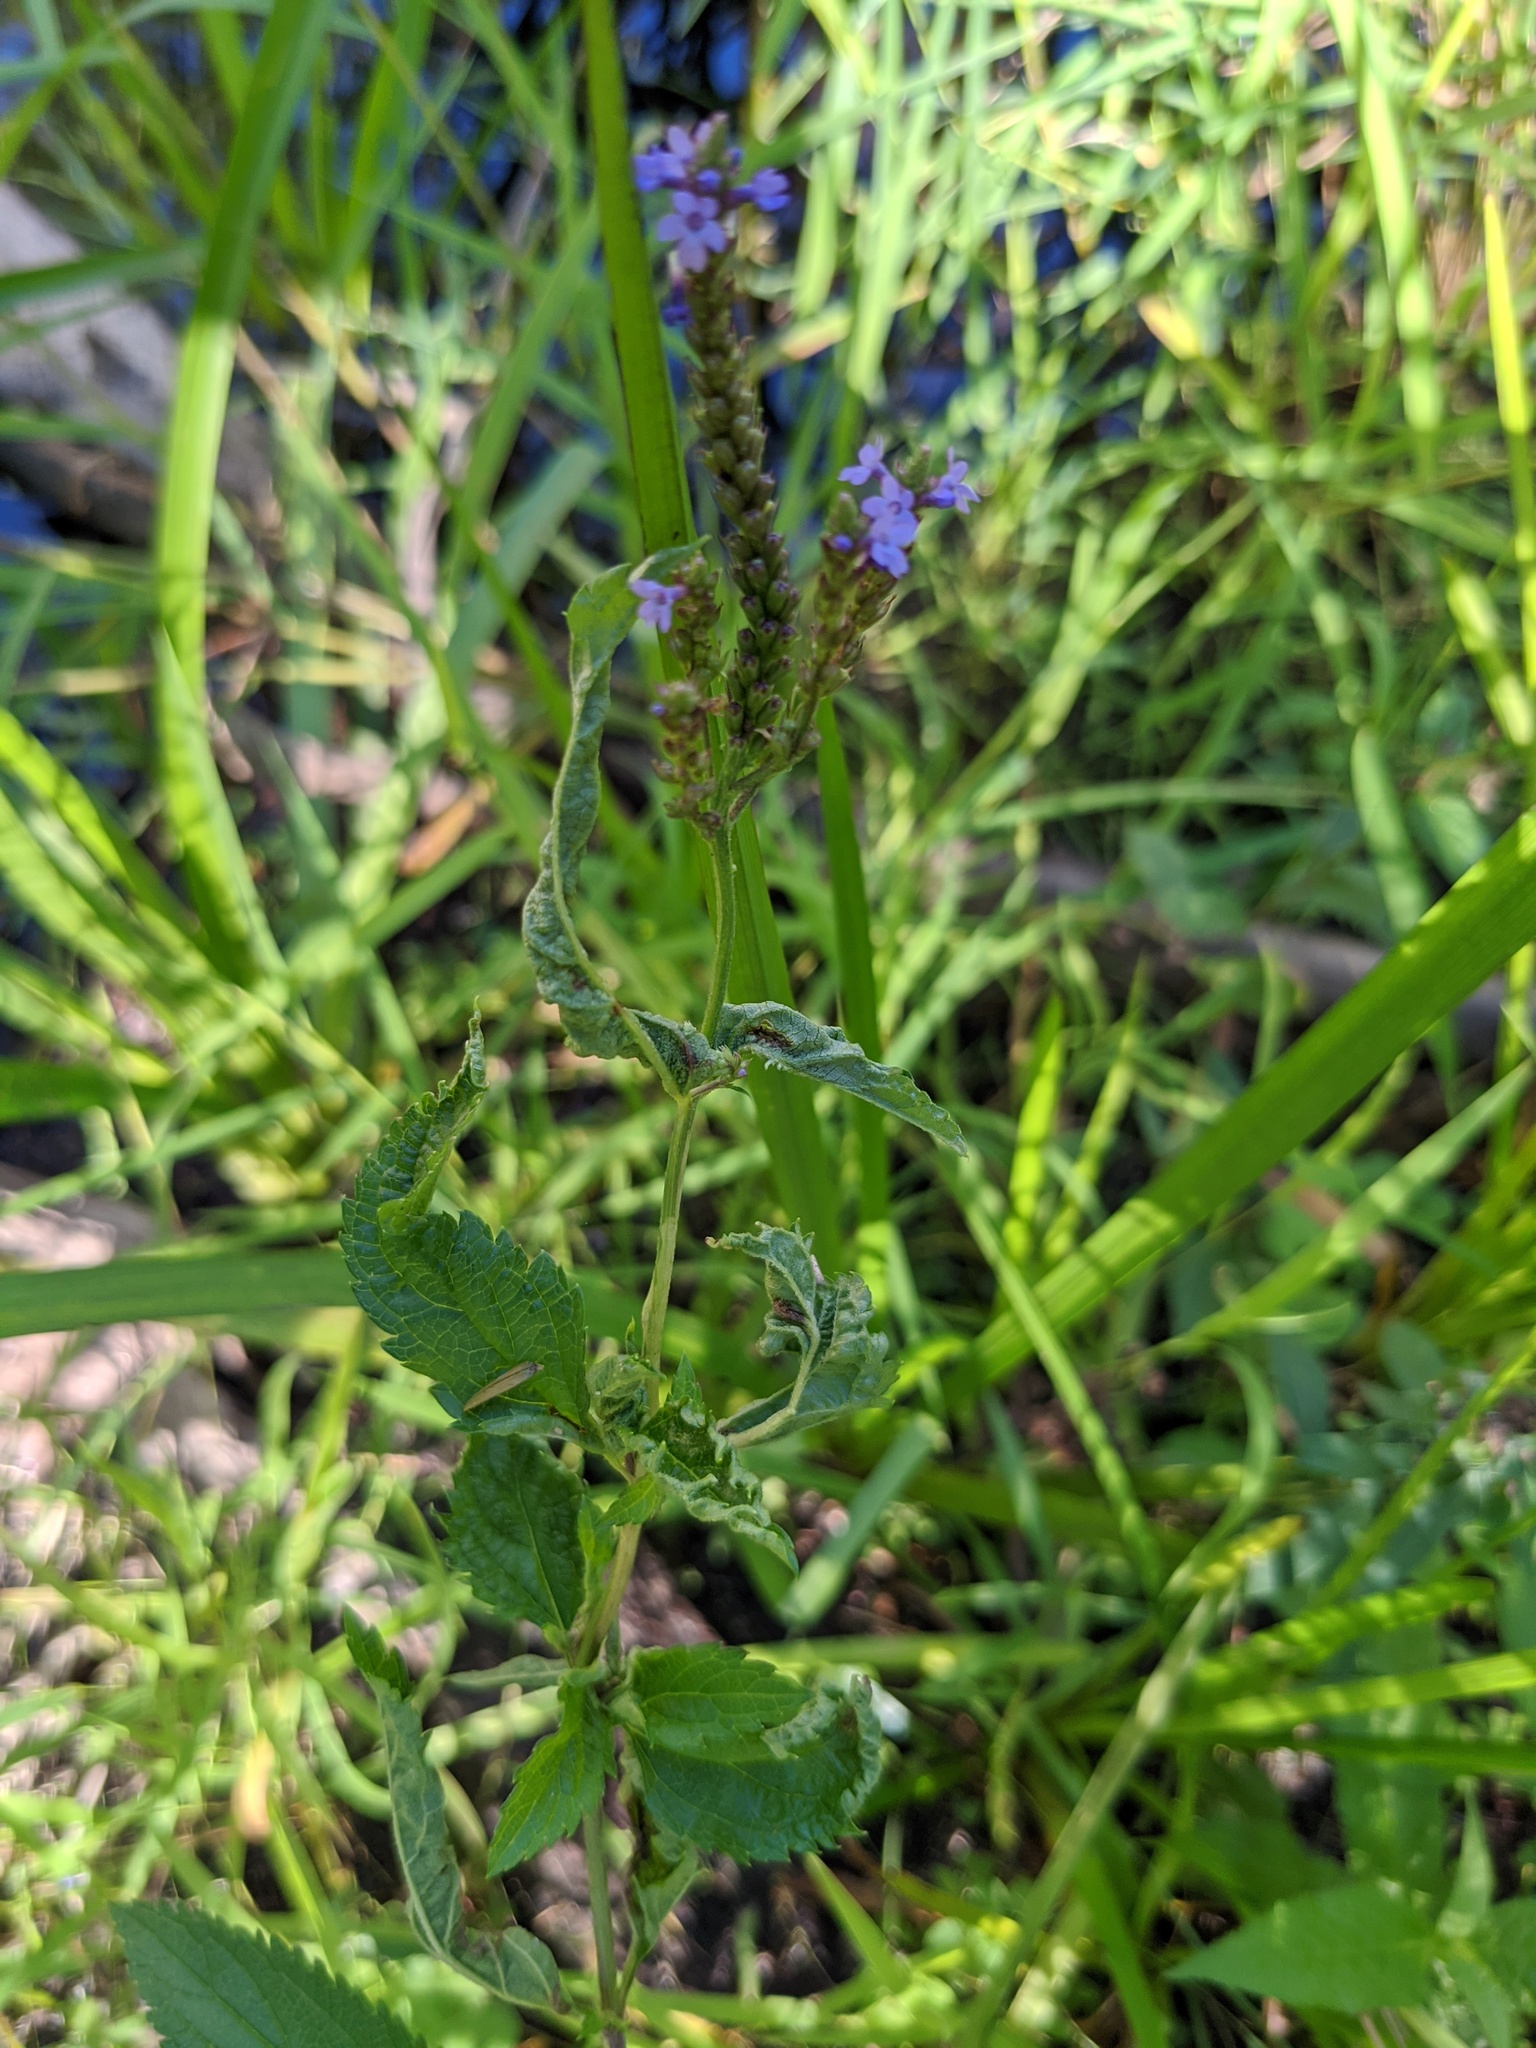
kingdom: Plantae
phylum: Tracheophyta
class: Magnoliopsida
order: Lamiales
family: Verbenaceae
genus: Verbena
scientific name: Verbena hastata
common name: American blue vervain
